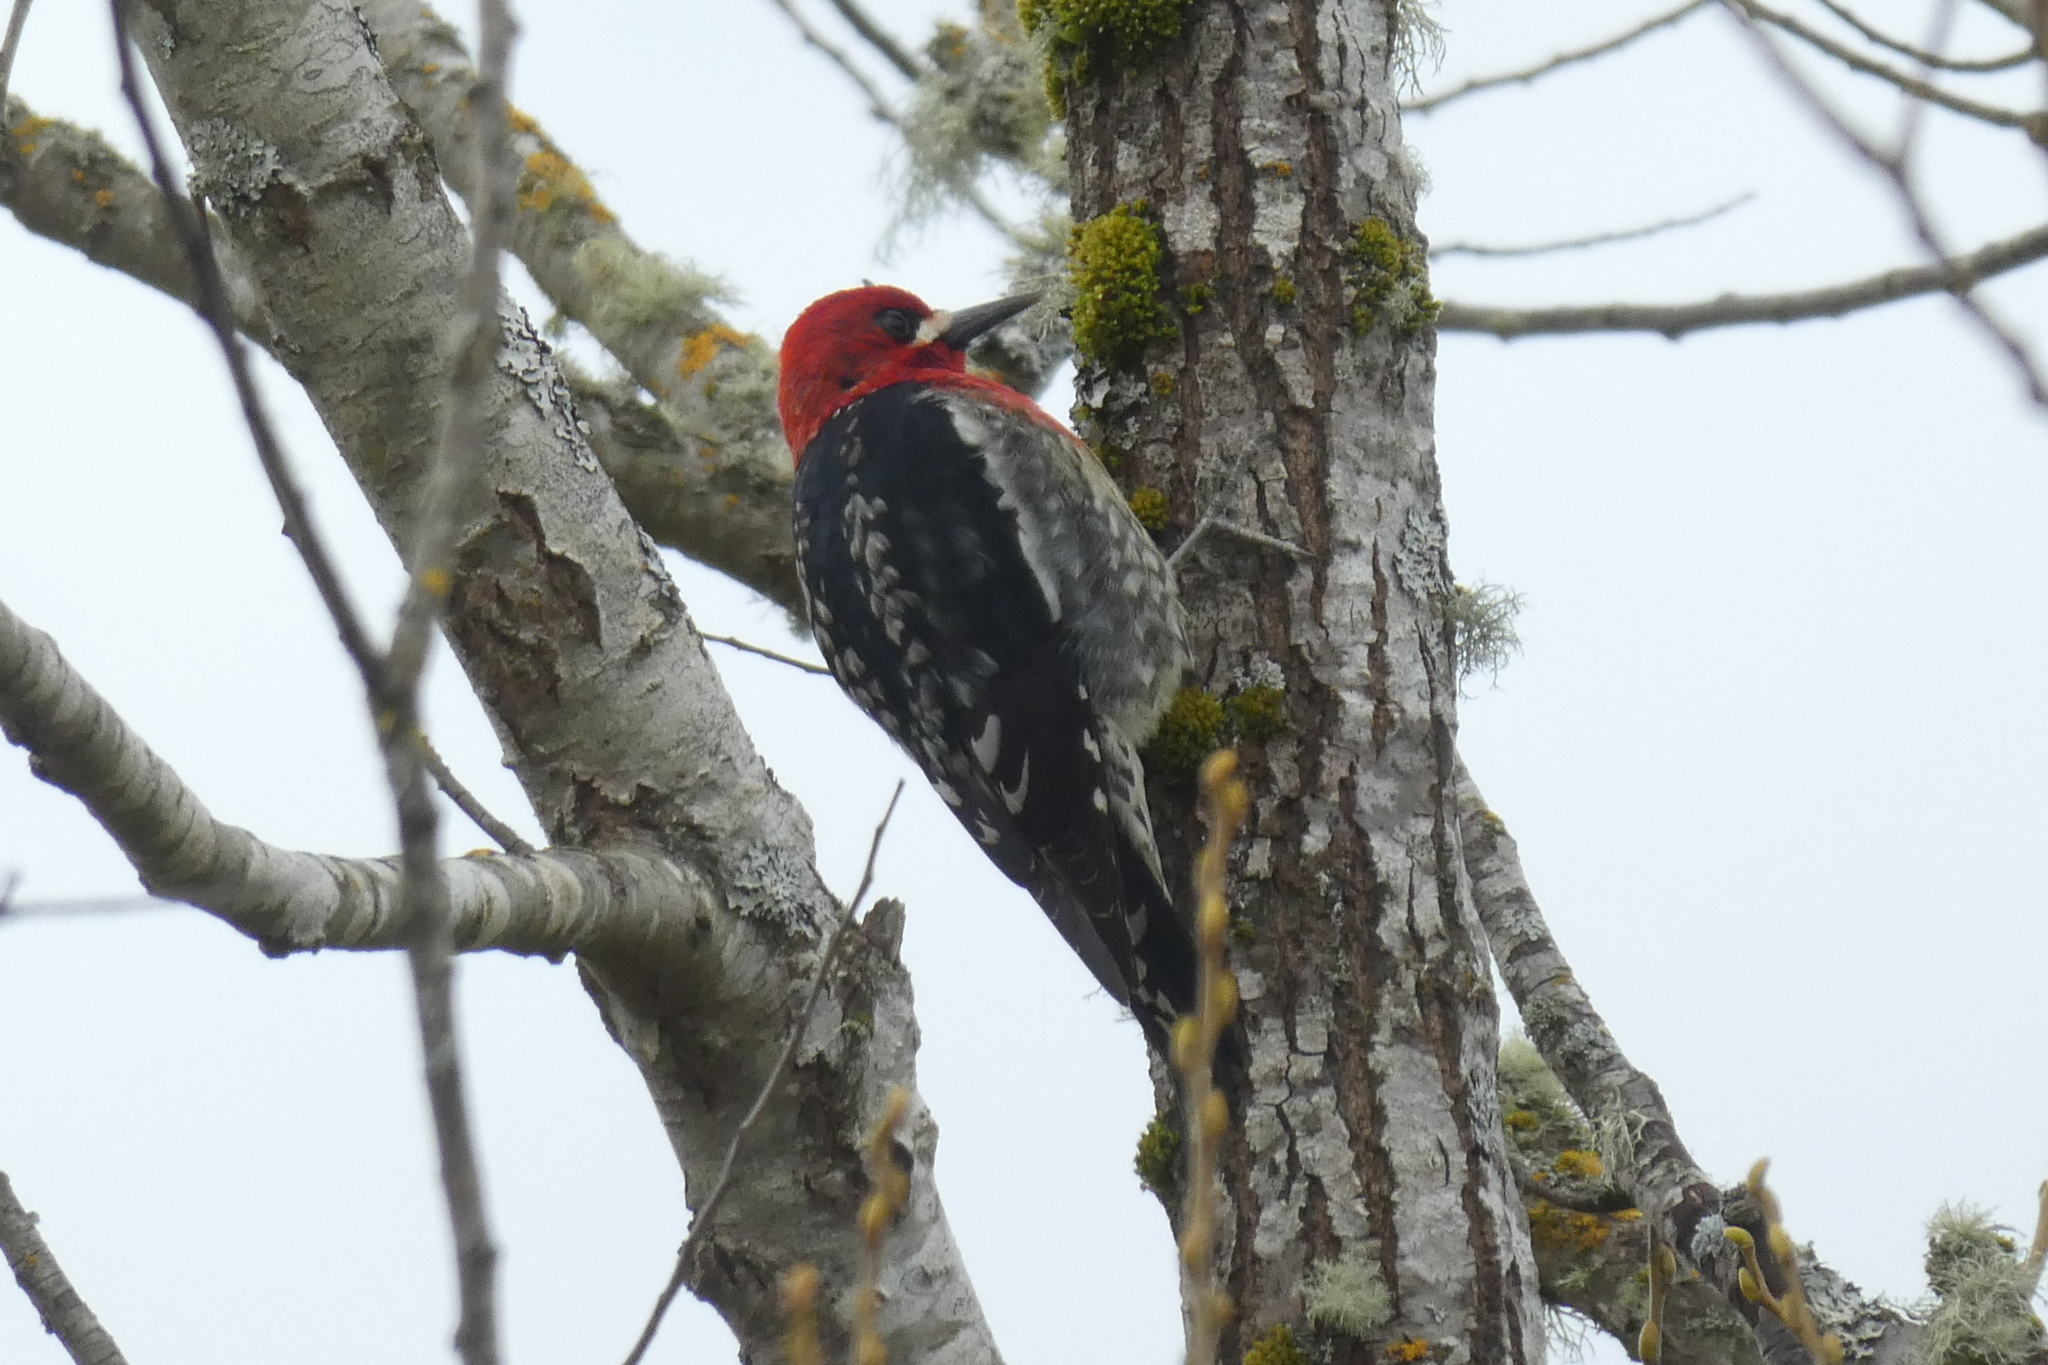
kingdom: Animalia
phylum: Chordata
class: Aves
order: Piciformes
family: Picidae
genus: Sphyrapicus
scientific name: Sphyrapicus ruber
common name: Red-breasted sapsucker
